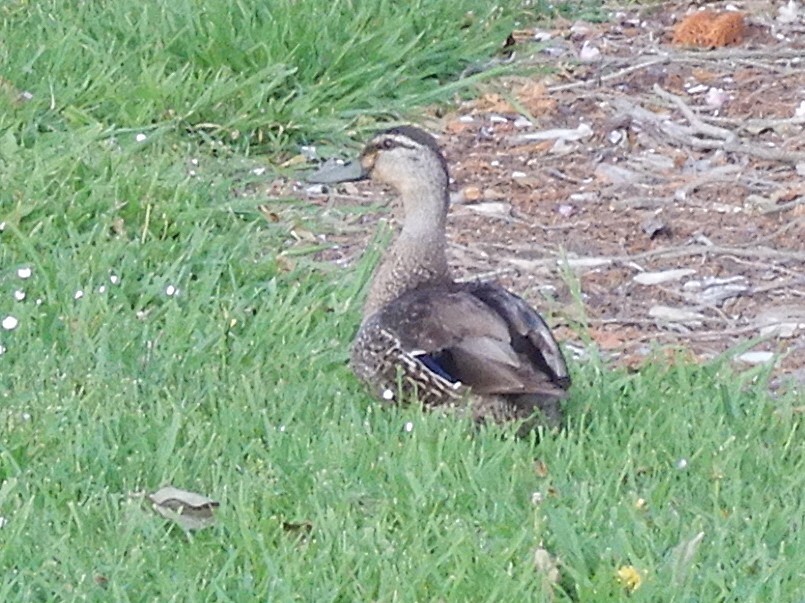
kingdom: Animalia
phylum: Chordata
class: Aves
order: Anseriformes
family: Anatidae
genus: Anas
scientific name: Anas
